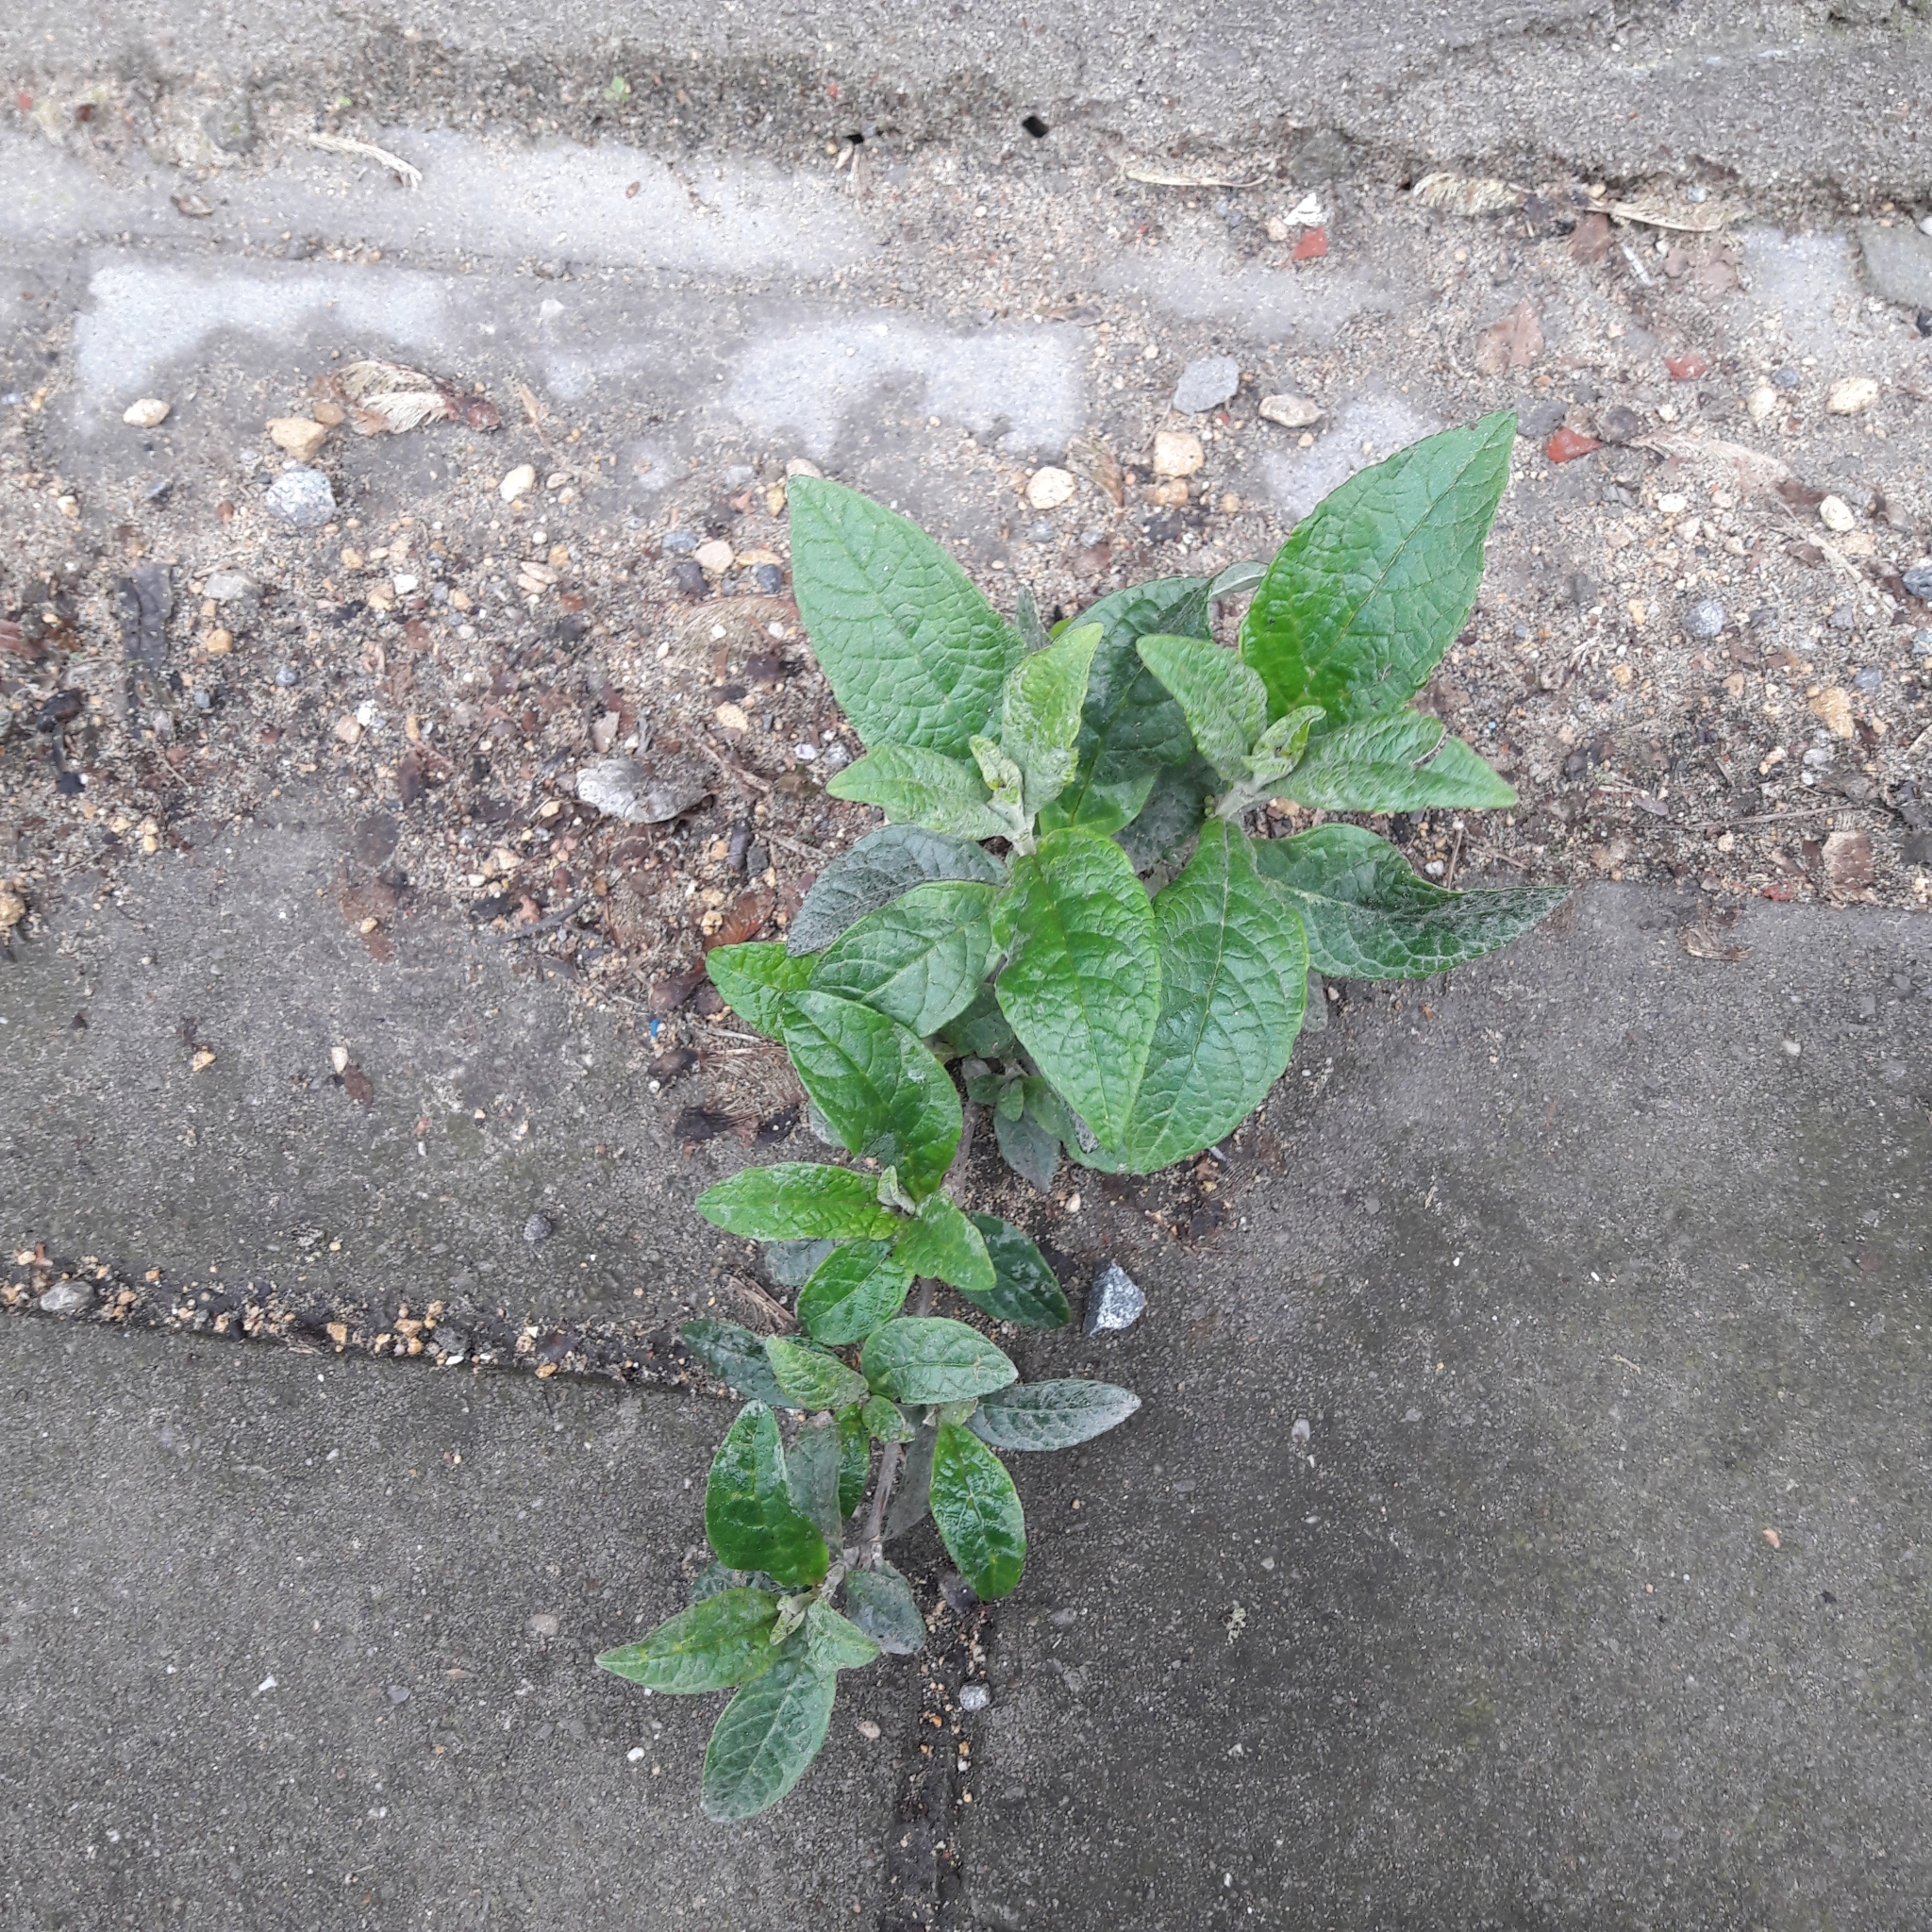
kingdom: Plantae
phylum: Tracheophyta
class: Magnoliopsida
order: Lamiales
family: Scrophulariaceae
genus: Buddleja
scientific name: Buddleja davidii
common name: Butterfly-bush
